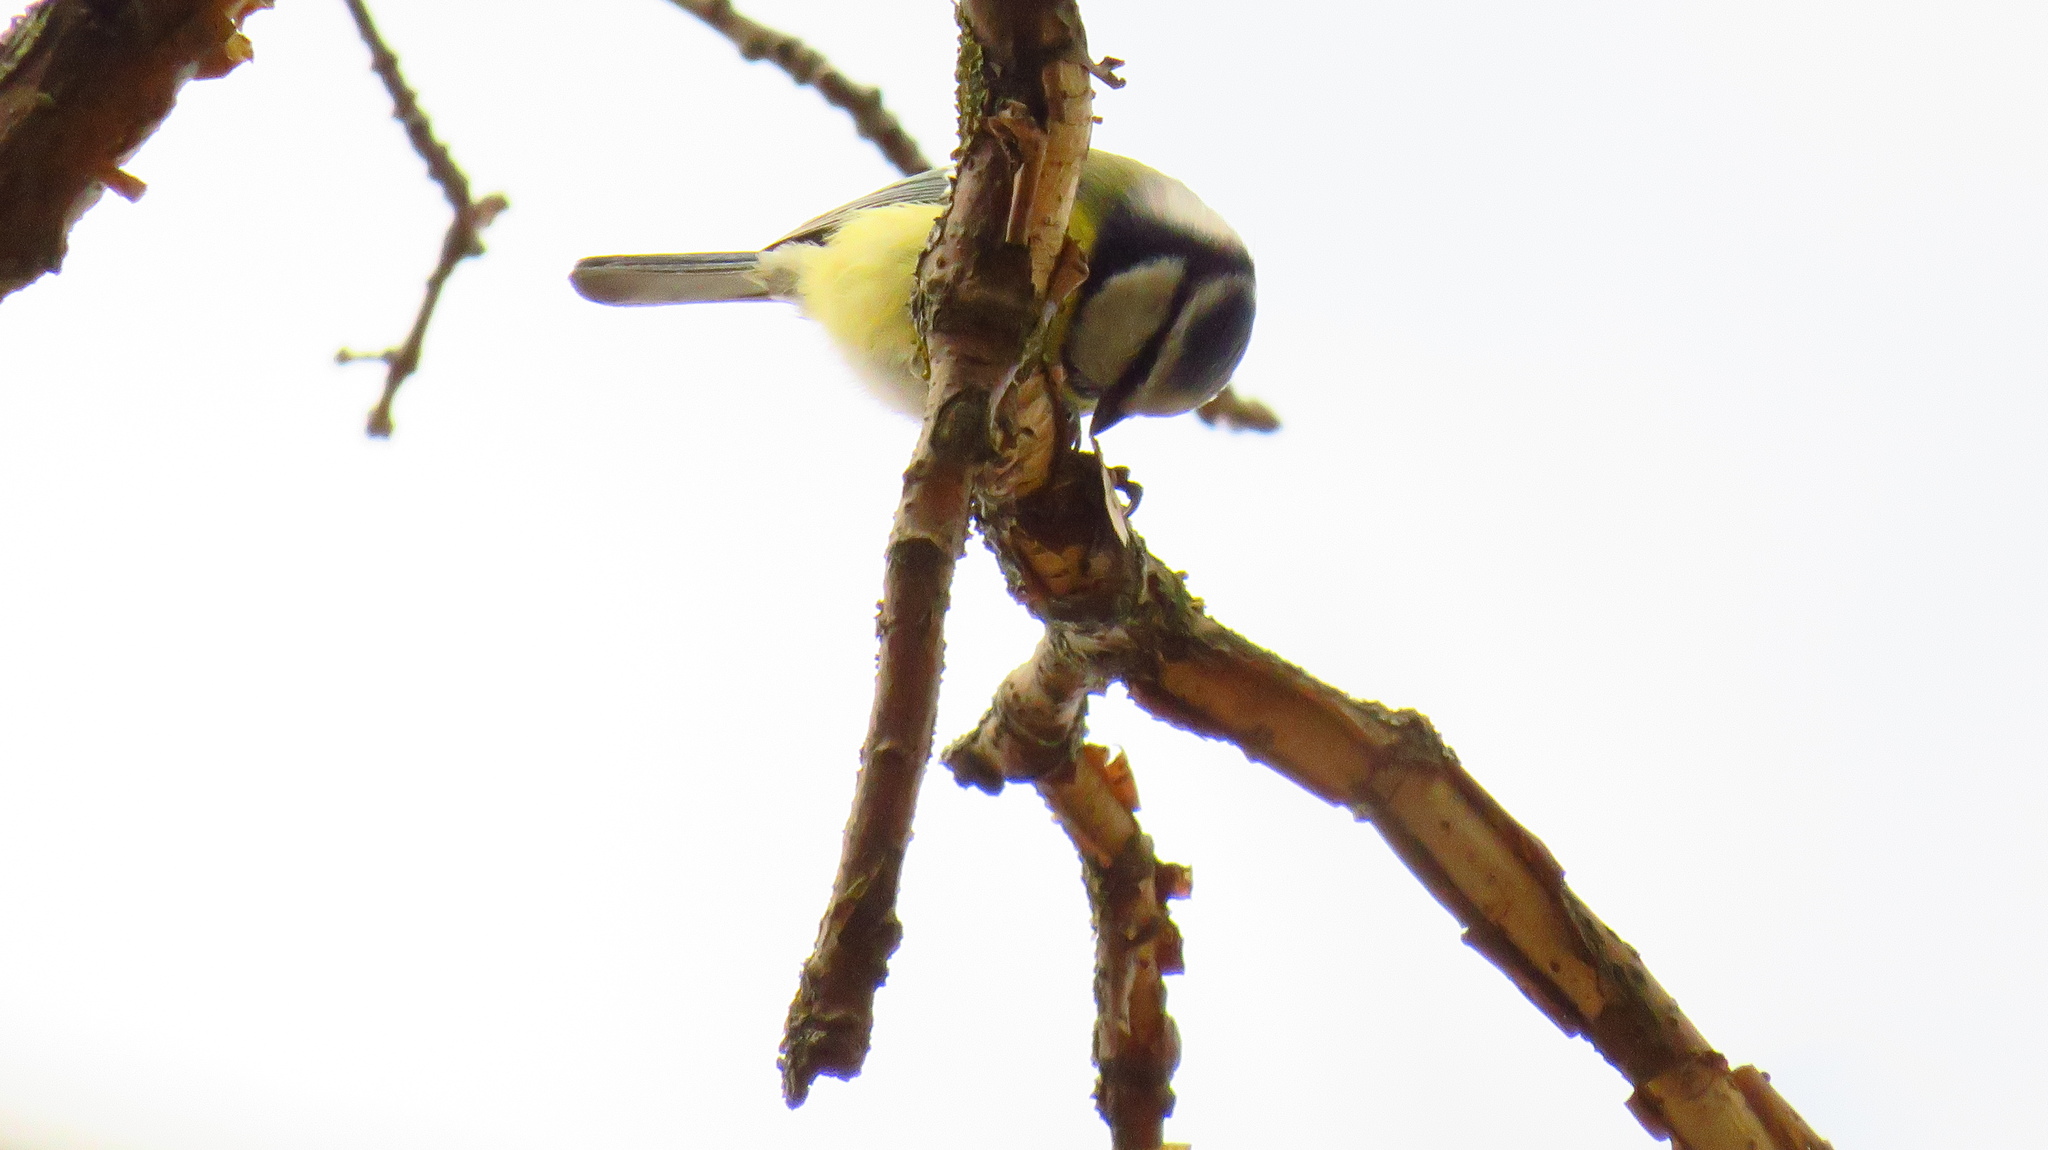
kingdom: Animalia
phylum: Chordata
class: Aves
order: Passeriformes
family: Paridae
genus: Cyanistes
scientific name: Cyanistes caeruleus
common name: Eurasian blue tit
